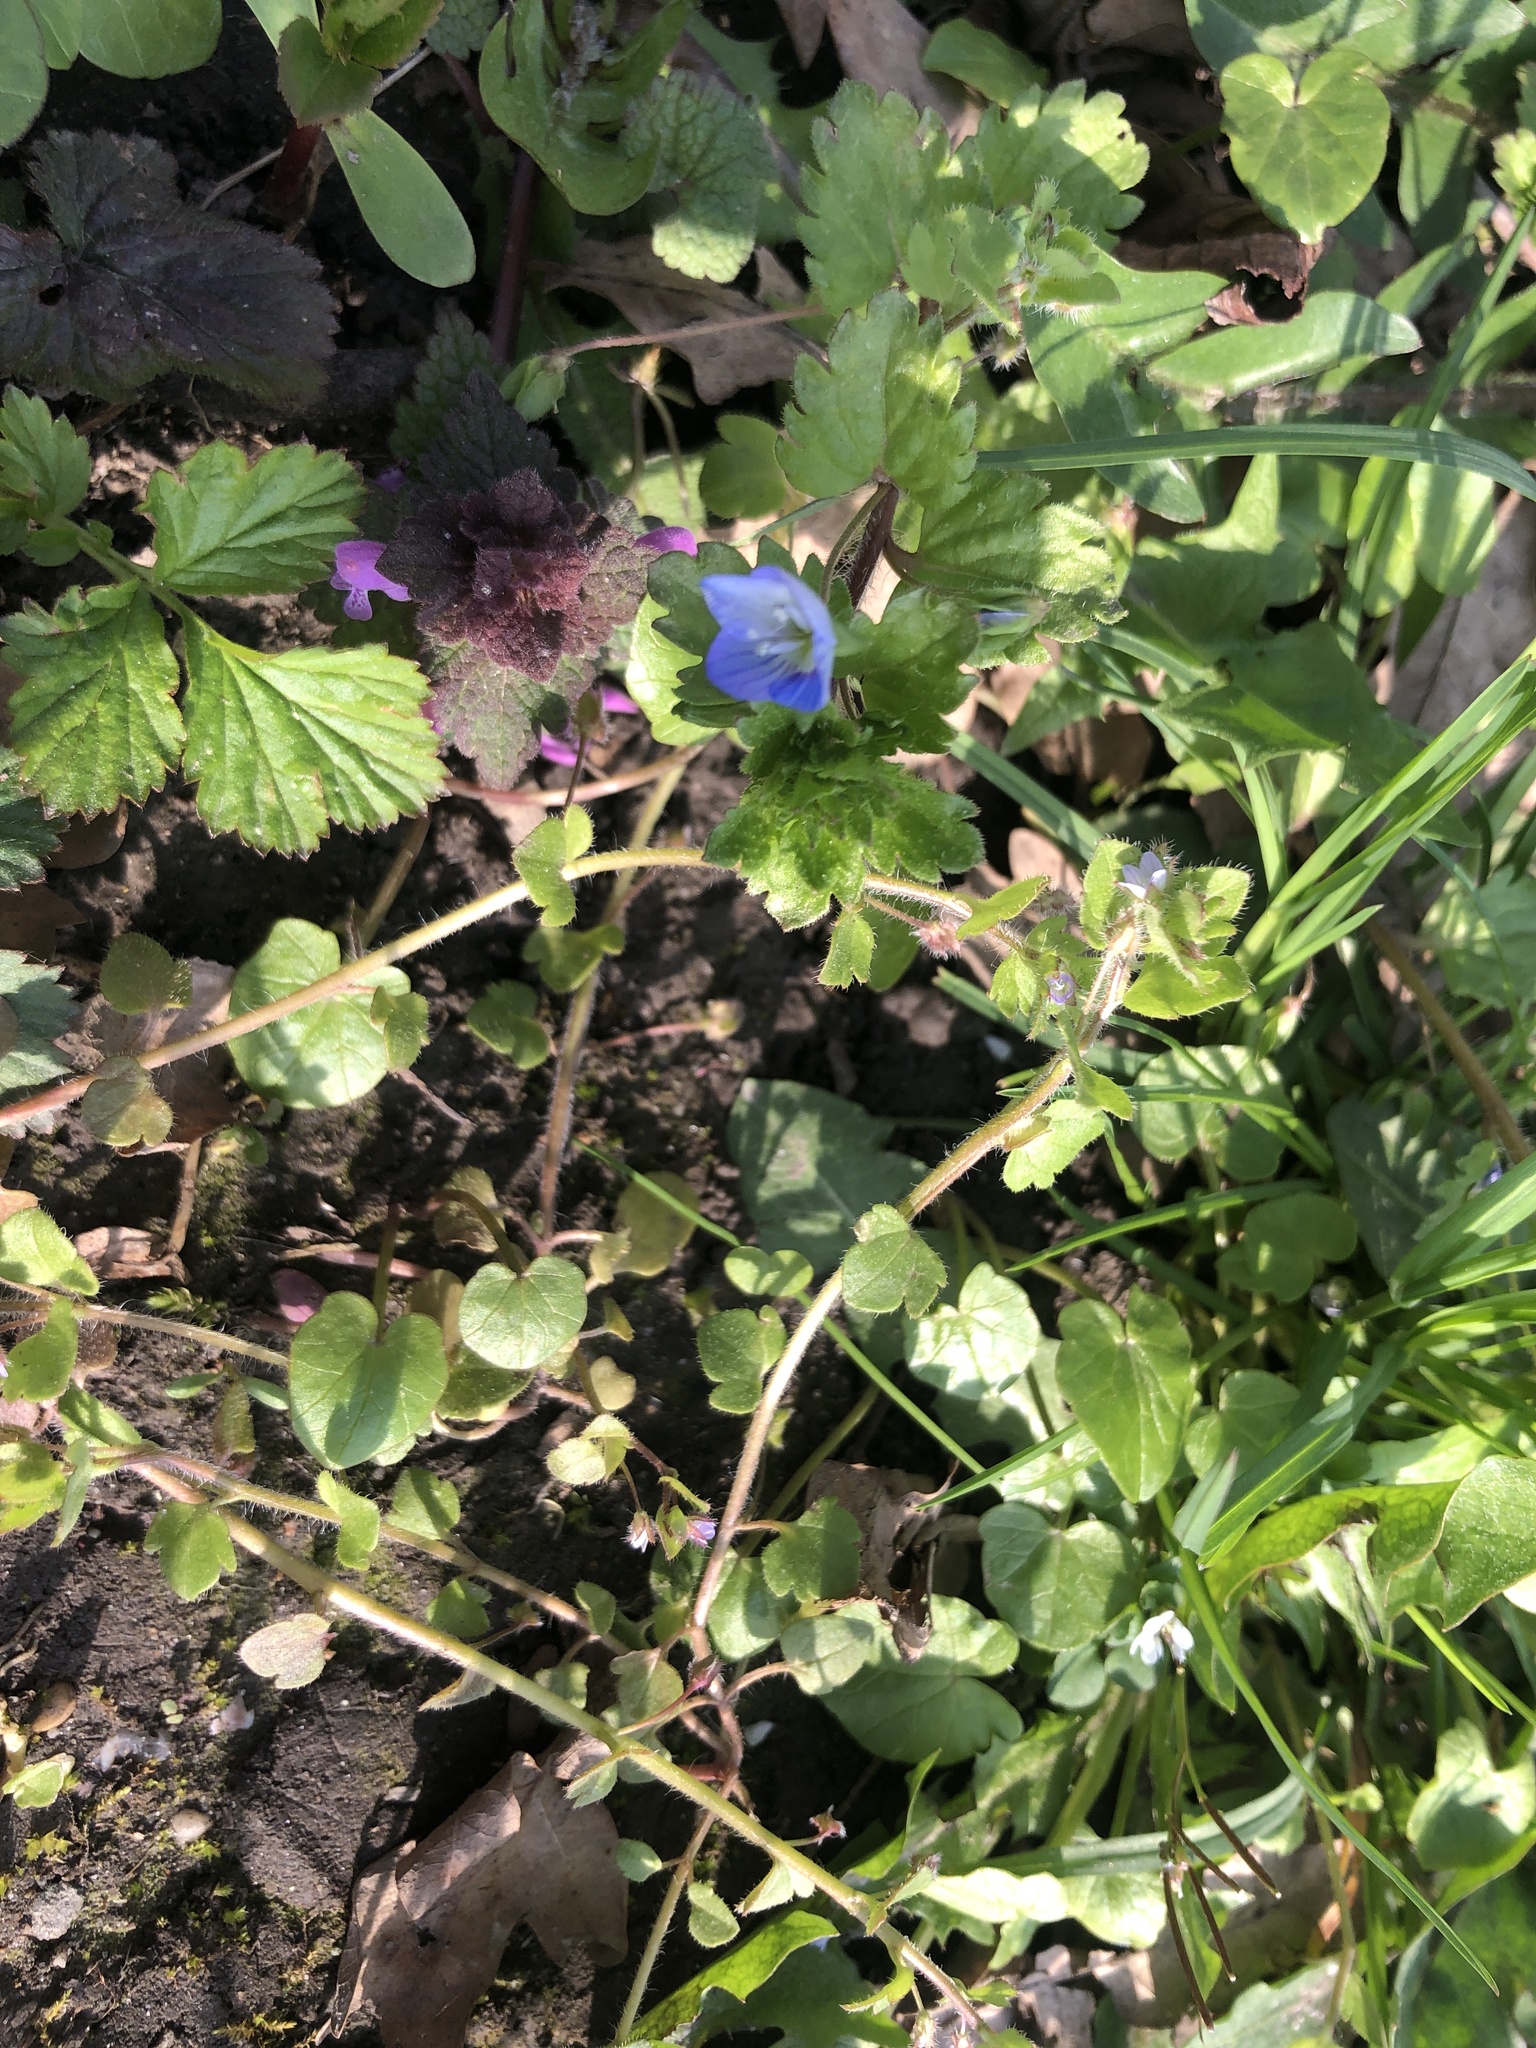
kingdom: Plantae
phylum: Tracheophyta
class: Magnoliopsida
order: Lamiales
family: Plantaginaceae
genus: Veronica
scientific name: Veronica persica
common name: Common field-speedwell
